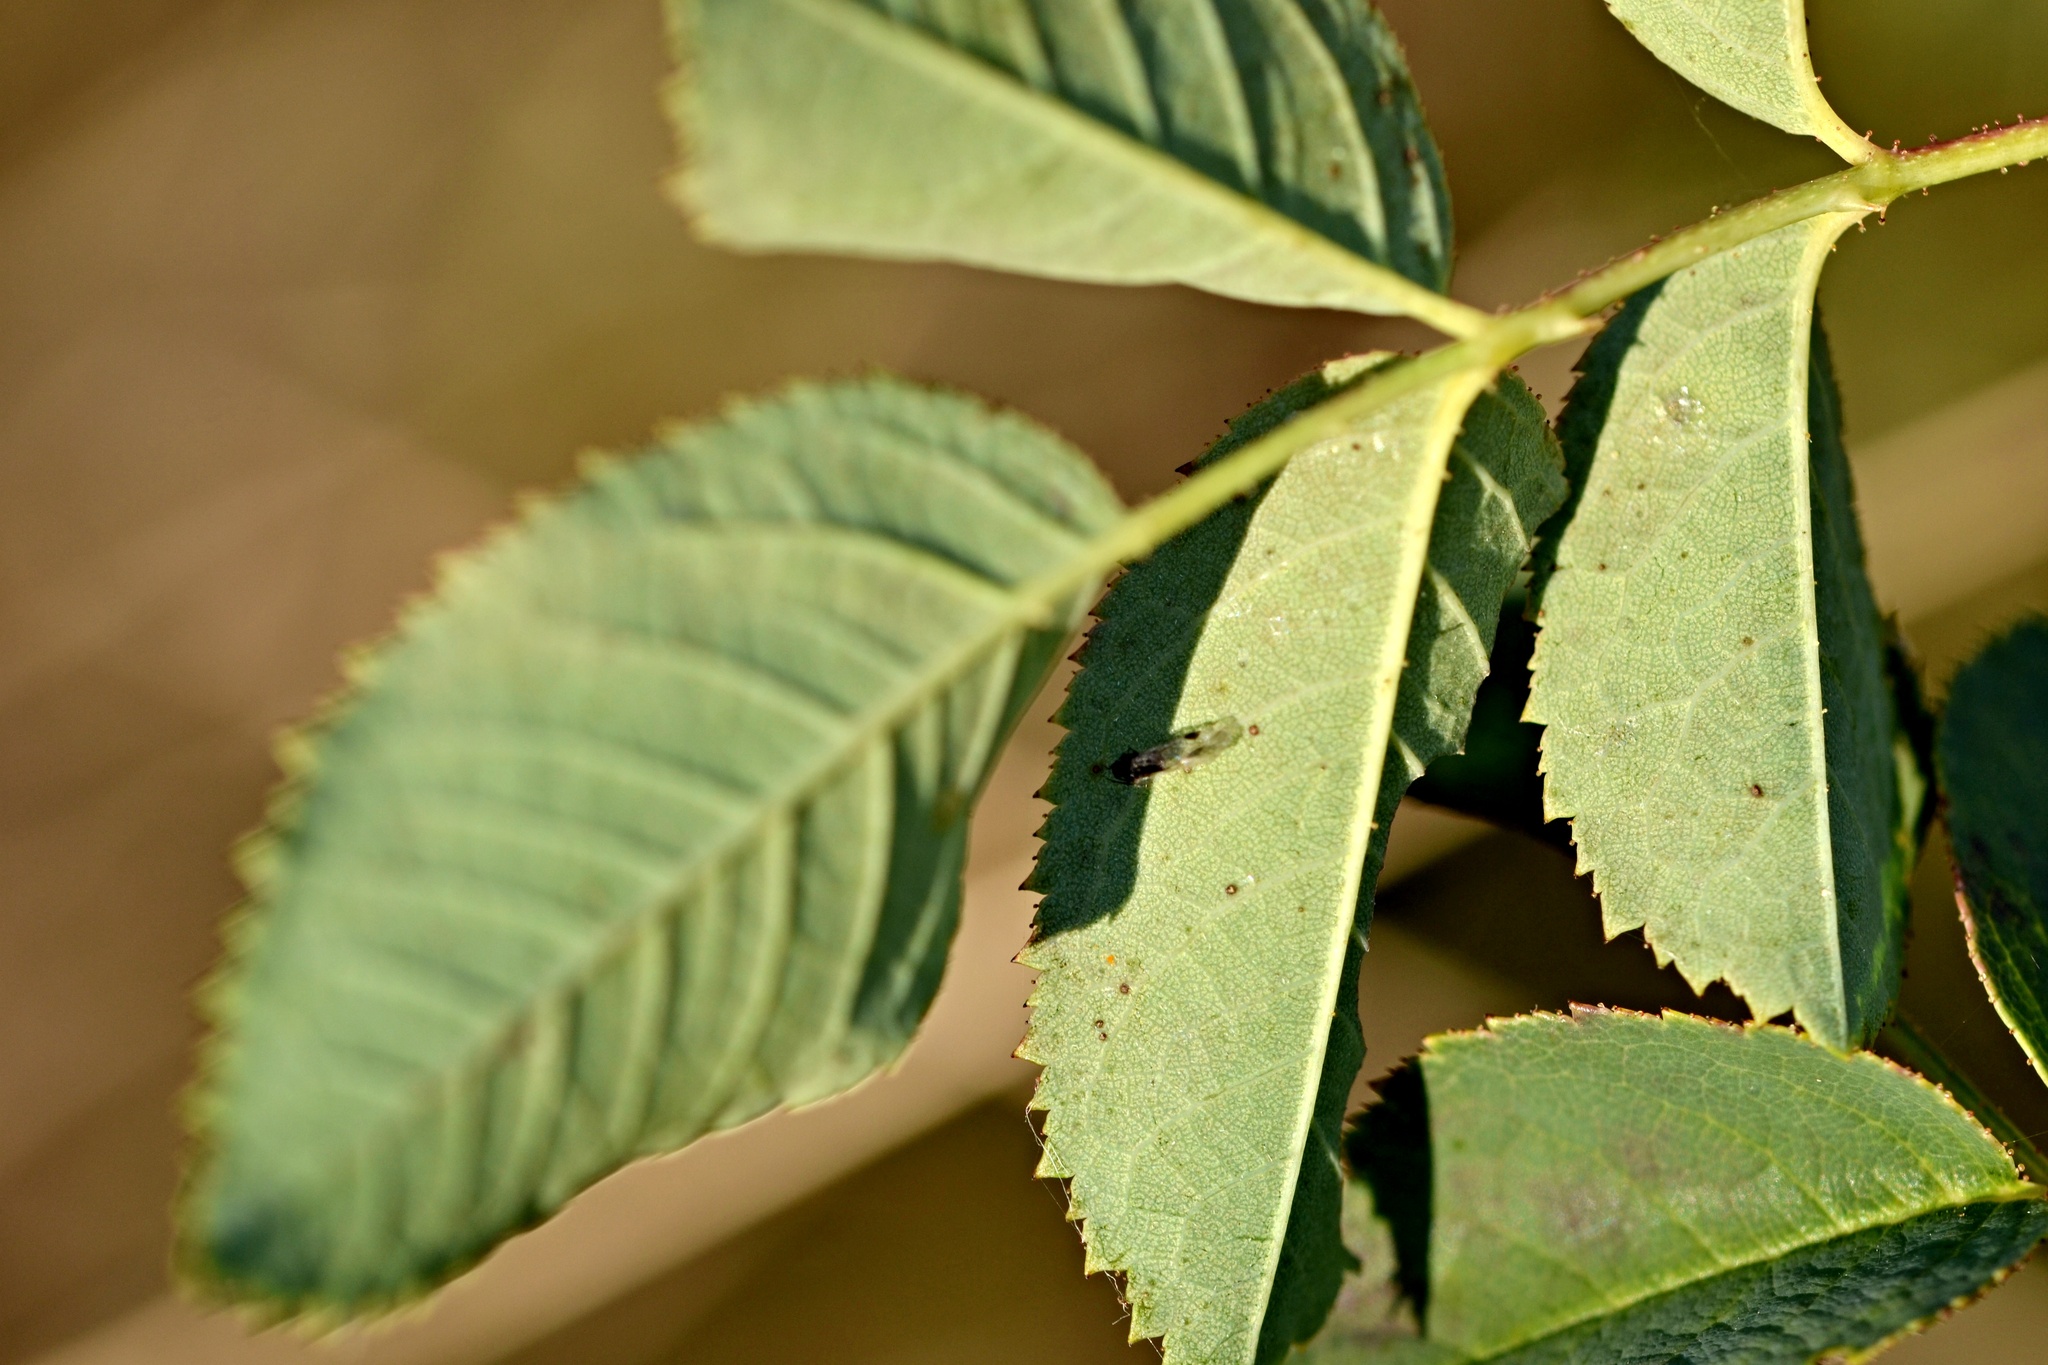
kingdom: Plantae
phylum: Tracheophyta
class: Magnoliopsida
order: Rosales
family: Rosaceae
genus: Rosa
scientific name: Rosa dumalis
